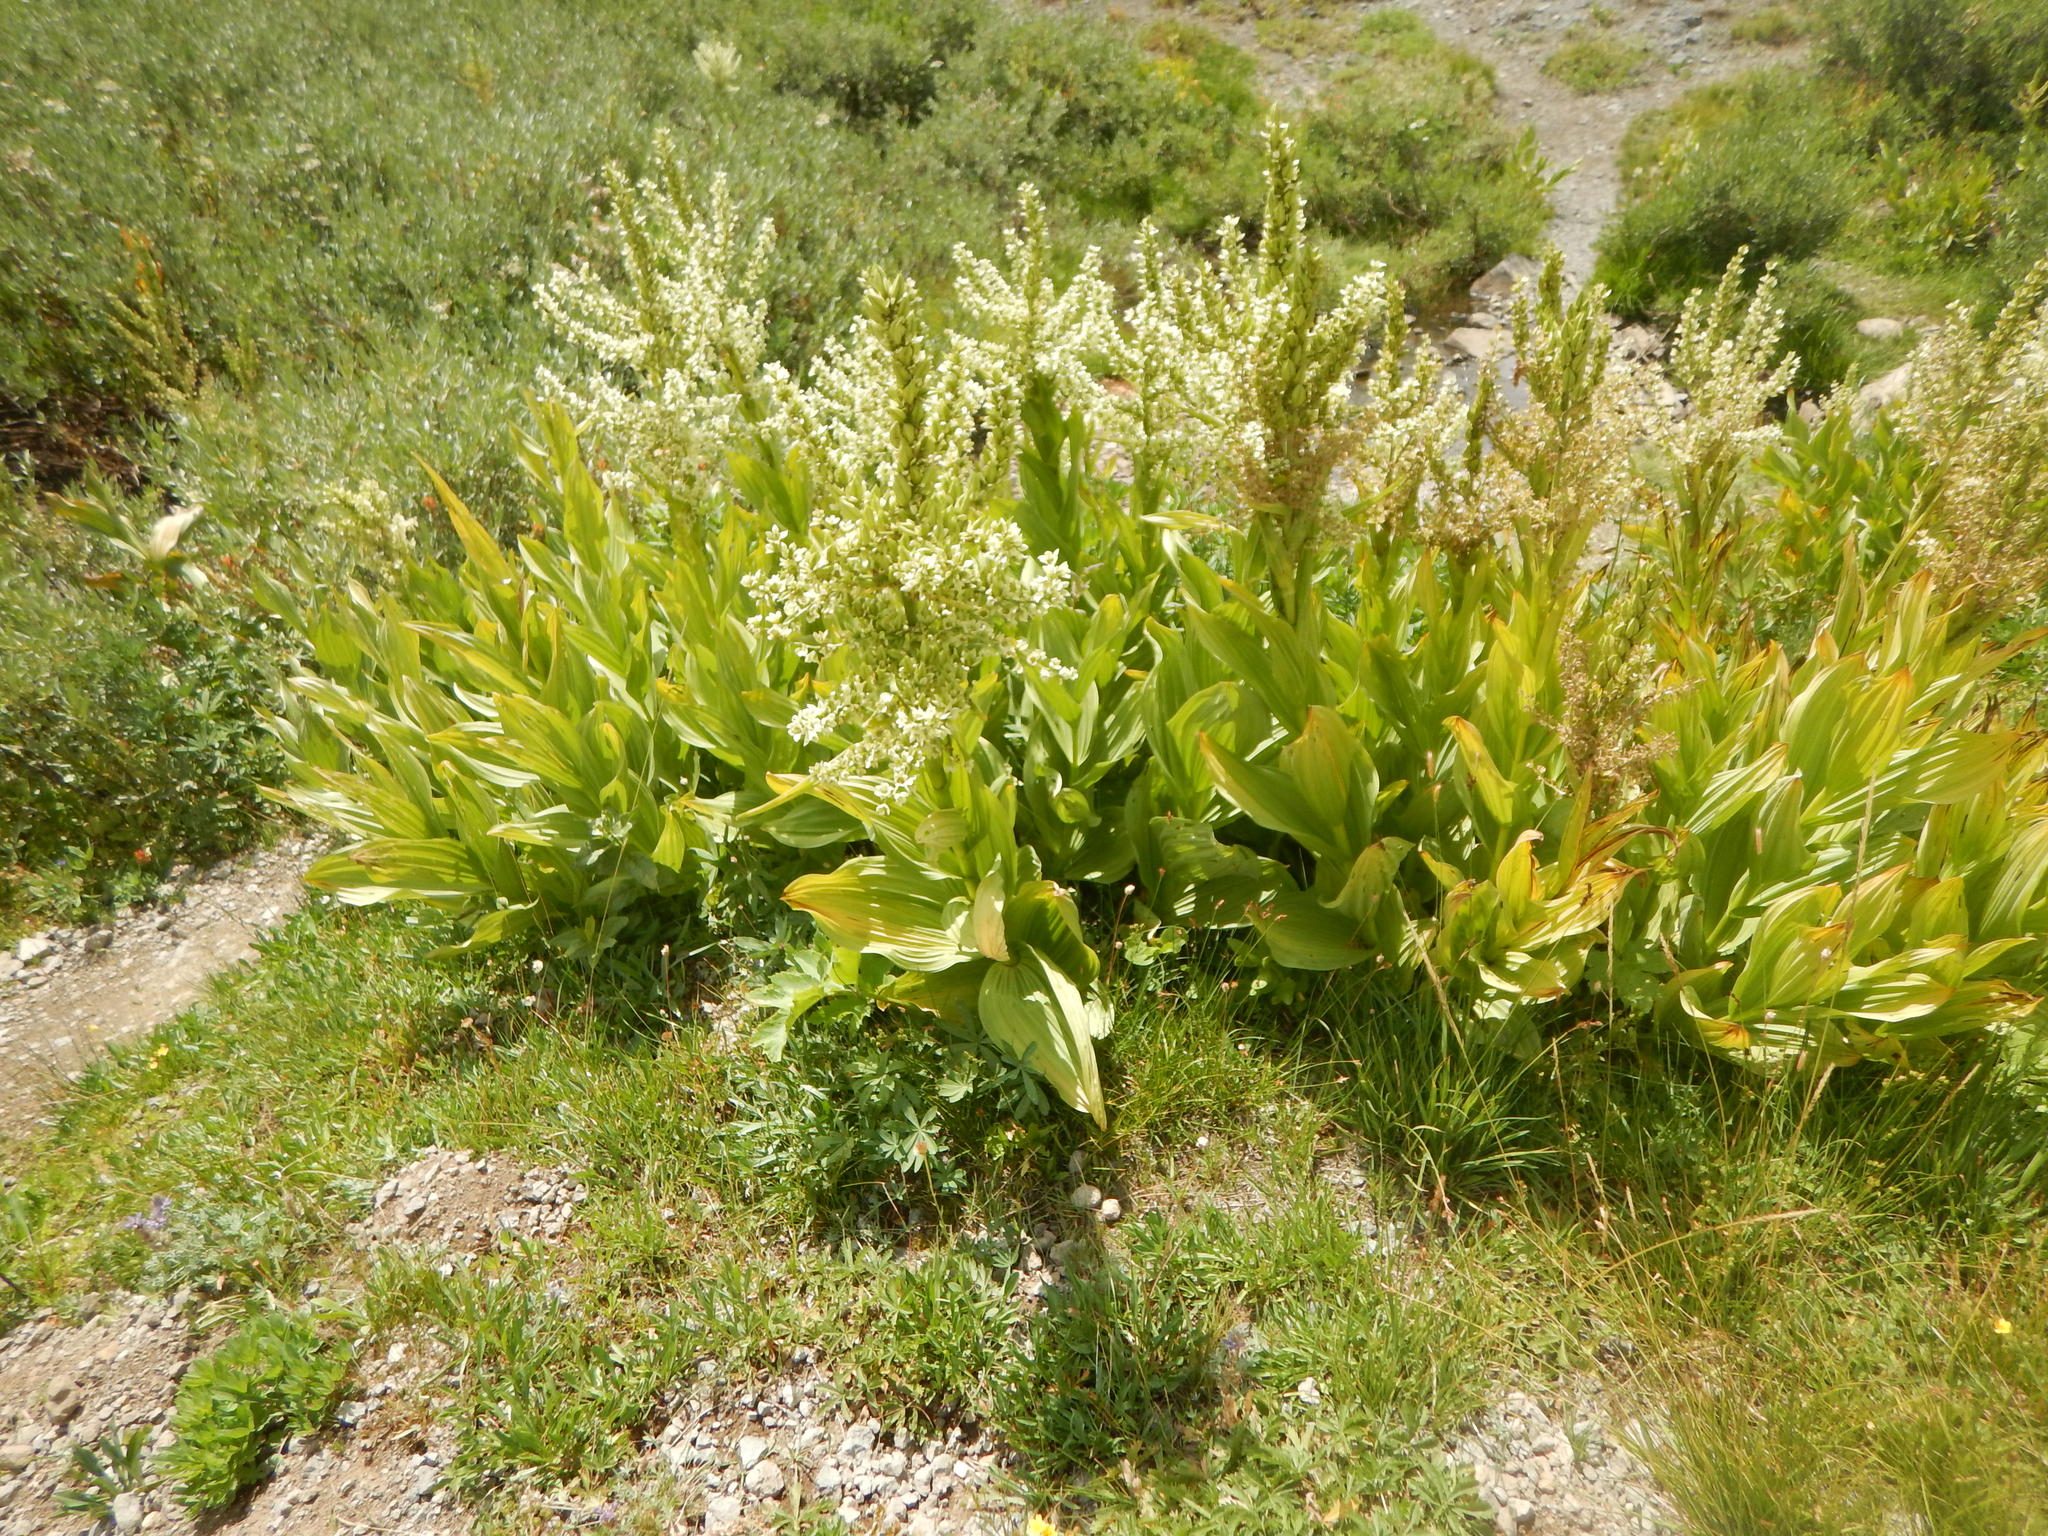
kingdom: Plantae
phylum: Tracheophyta
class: Liliopsida
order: Liliales
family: Melanthiaceae
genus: Veratrum
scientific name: Veratrum californicum
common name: California veratrum
